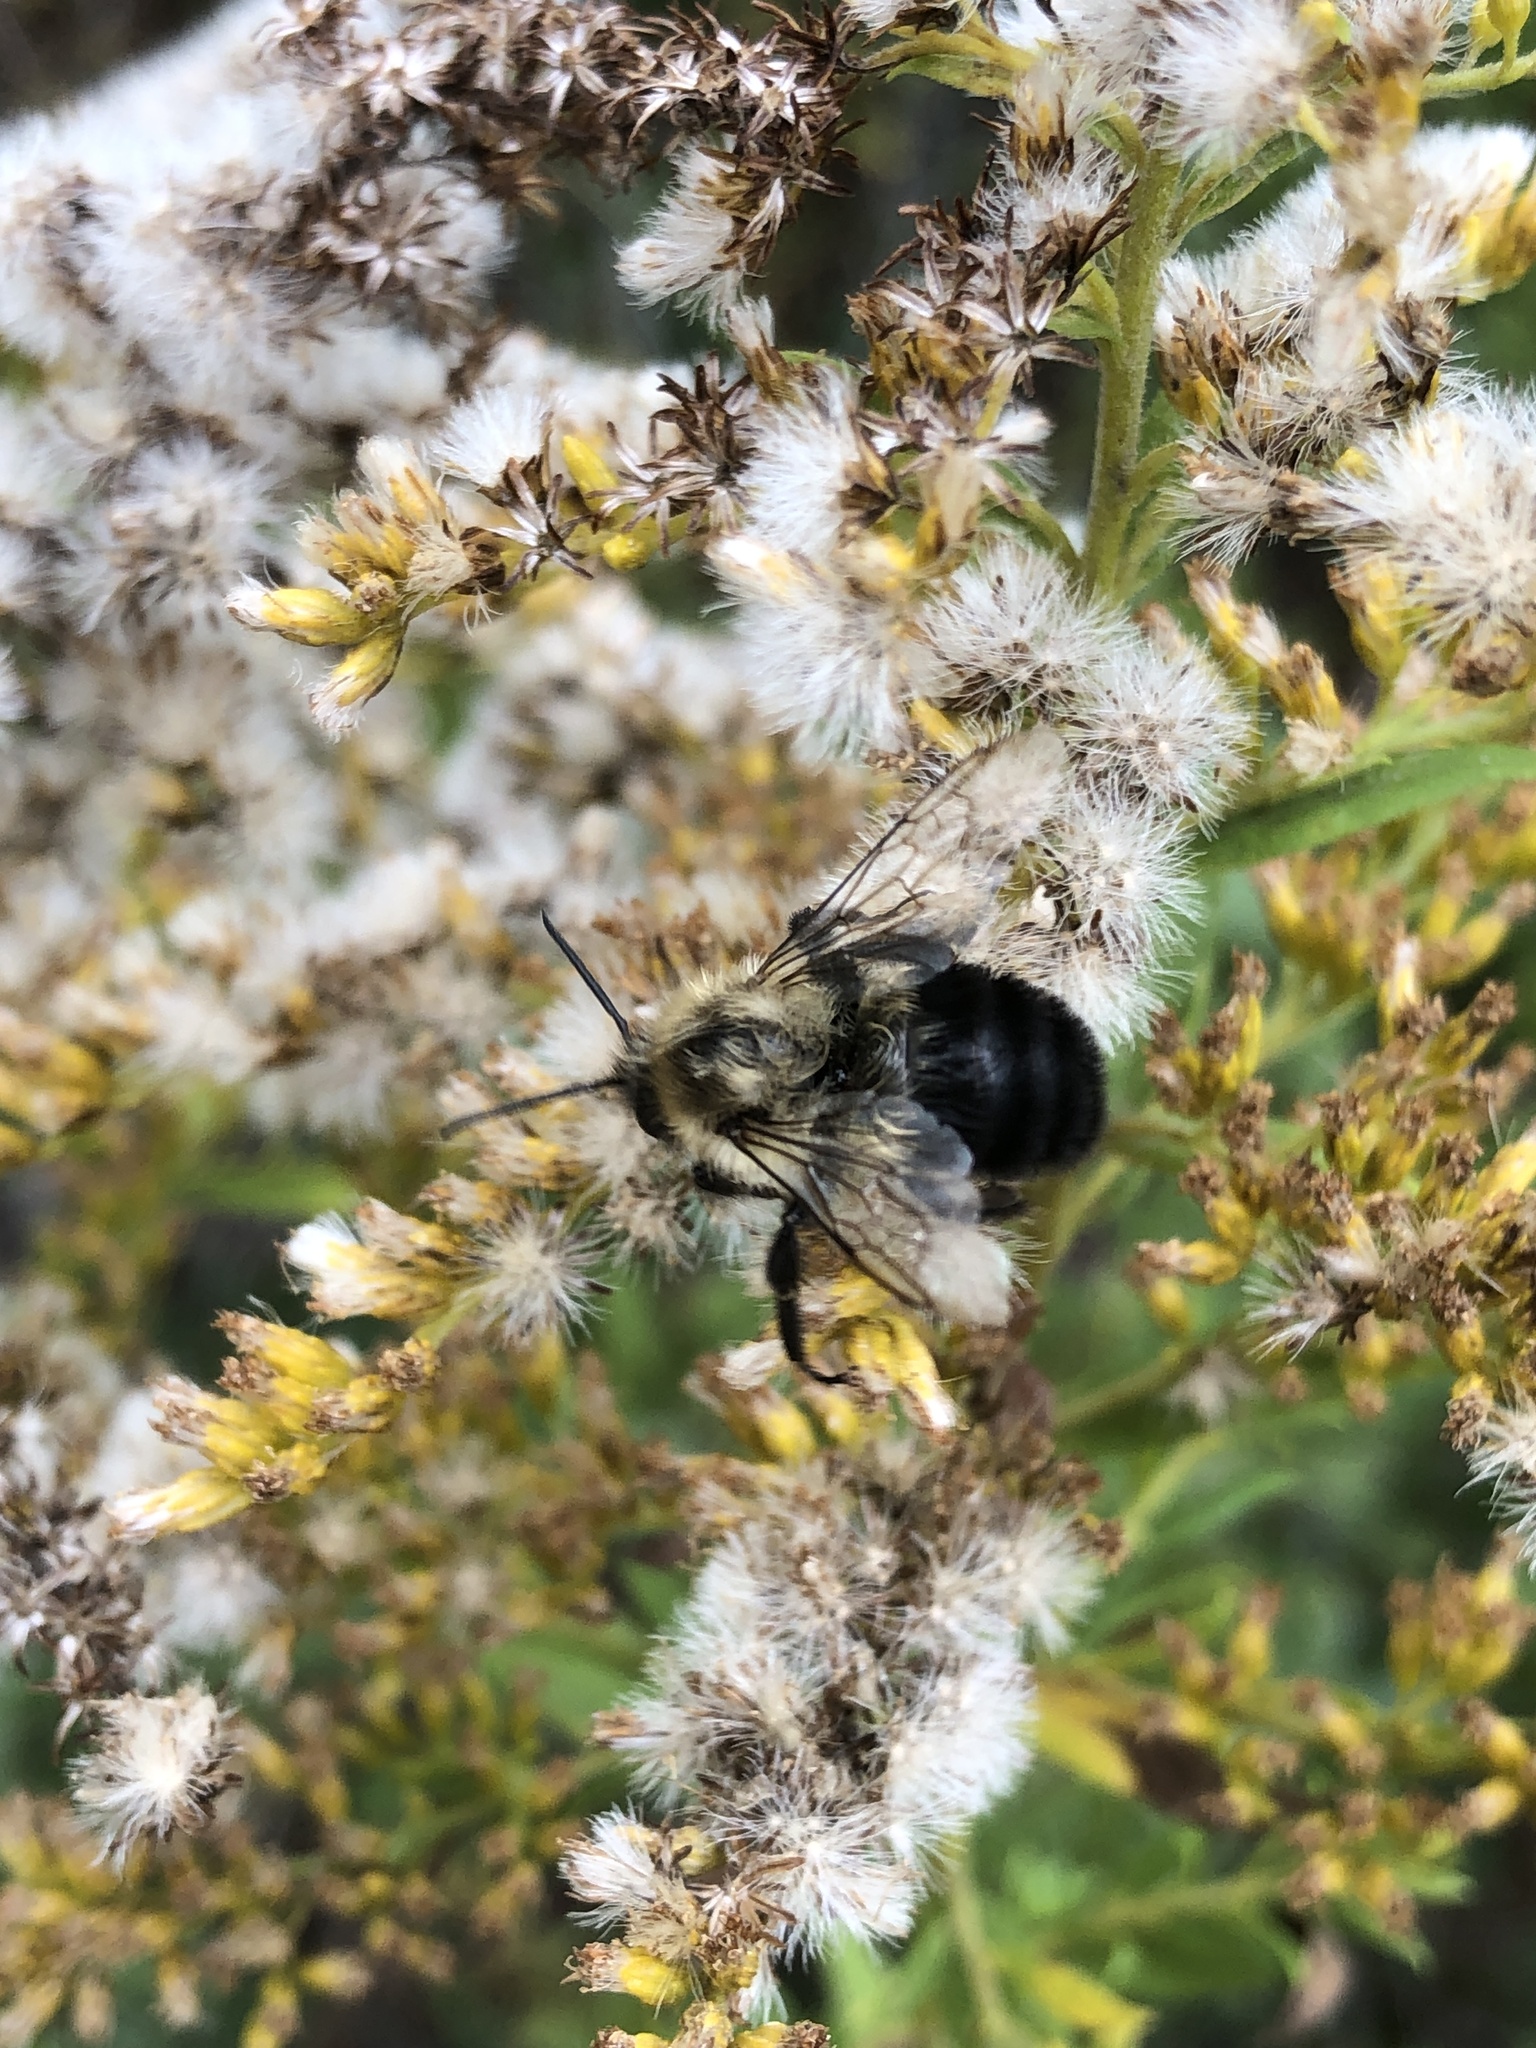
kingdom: Animalia
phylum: Arthropoda
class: Insecta
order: Hymenoptera
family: Apidae
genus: Bombus
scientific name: Bombus impatiens
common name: Common eastern bumble bee
